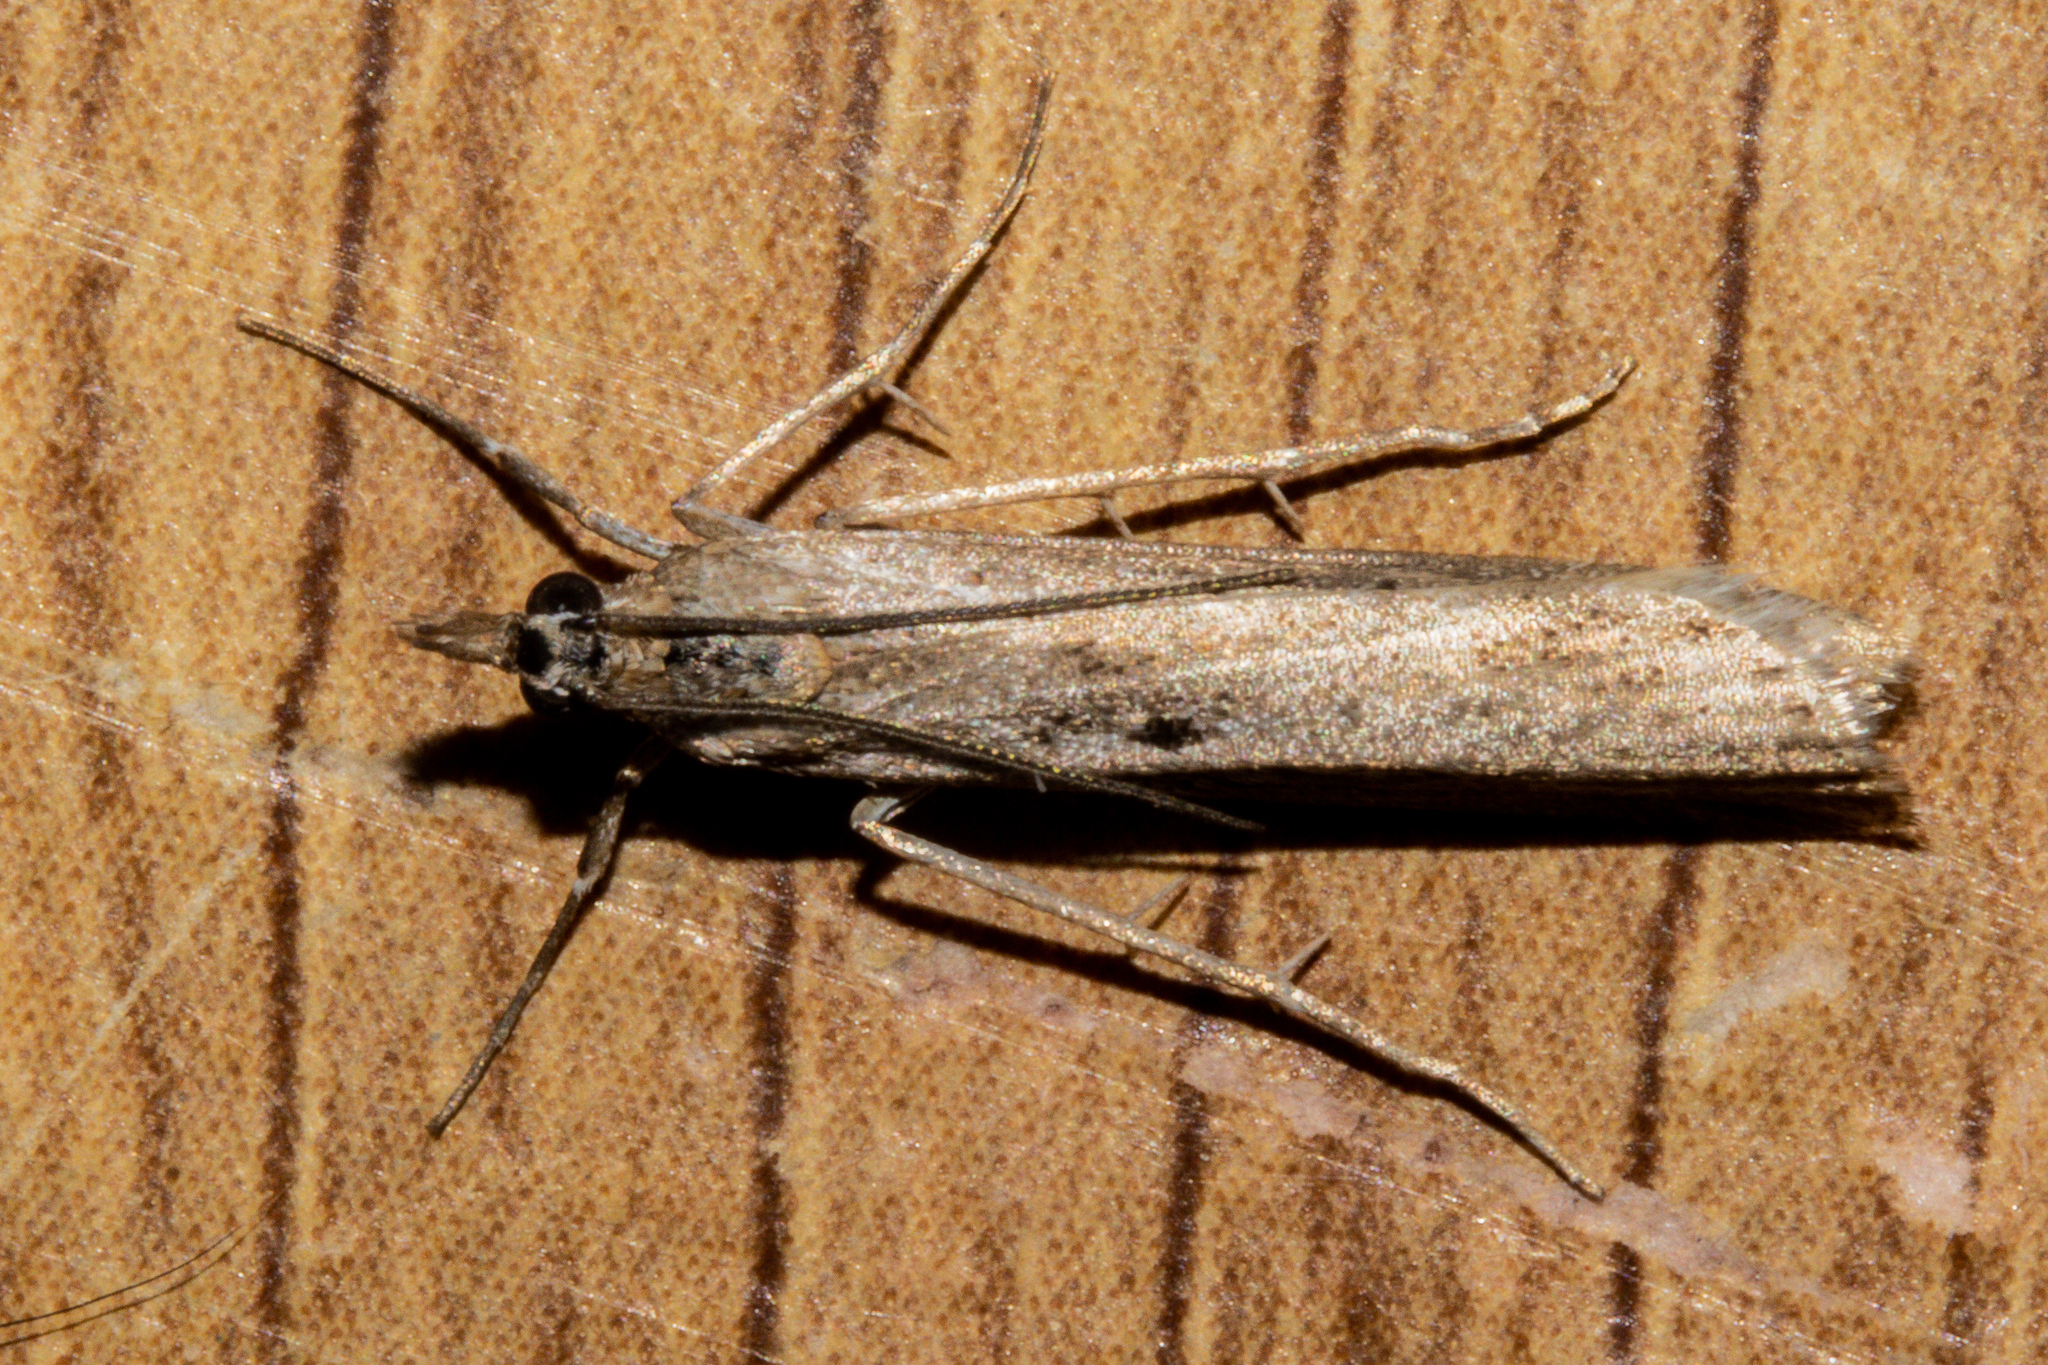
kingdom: Animalia
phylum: Arthropoda
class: Insecta
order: Lepidoptera
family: Crambidae
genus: Eudonia
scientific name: Eudonia leptalea
